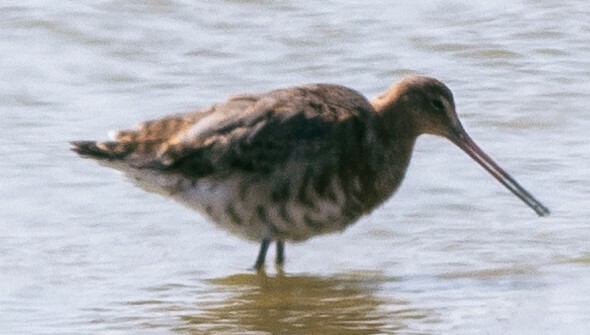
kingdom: Animalia
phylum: Chordata
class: Aves
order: Charadriiformes
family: Scolopacidae
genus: Limosa
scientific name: Limosa limosa
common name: Black-tailed godwit
